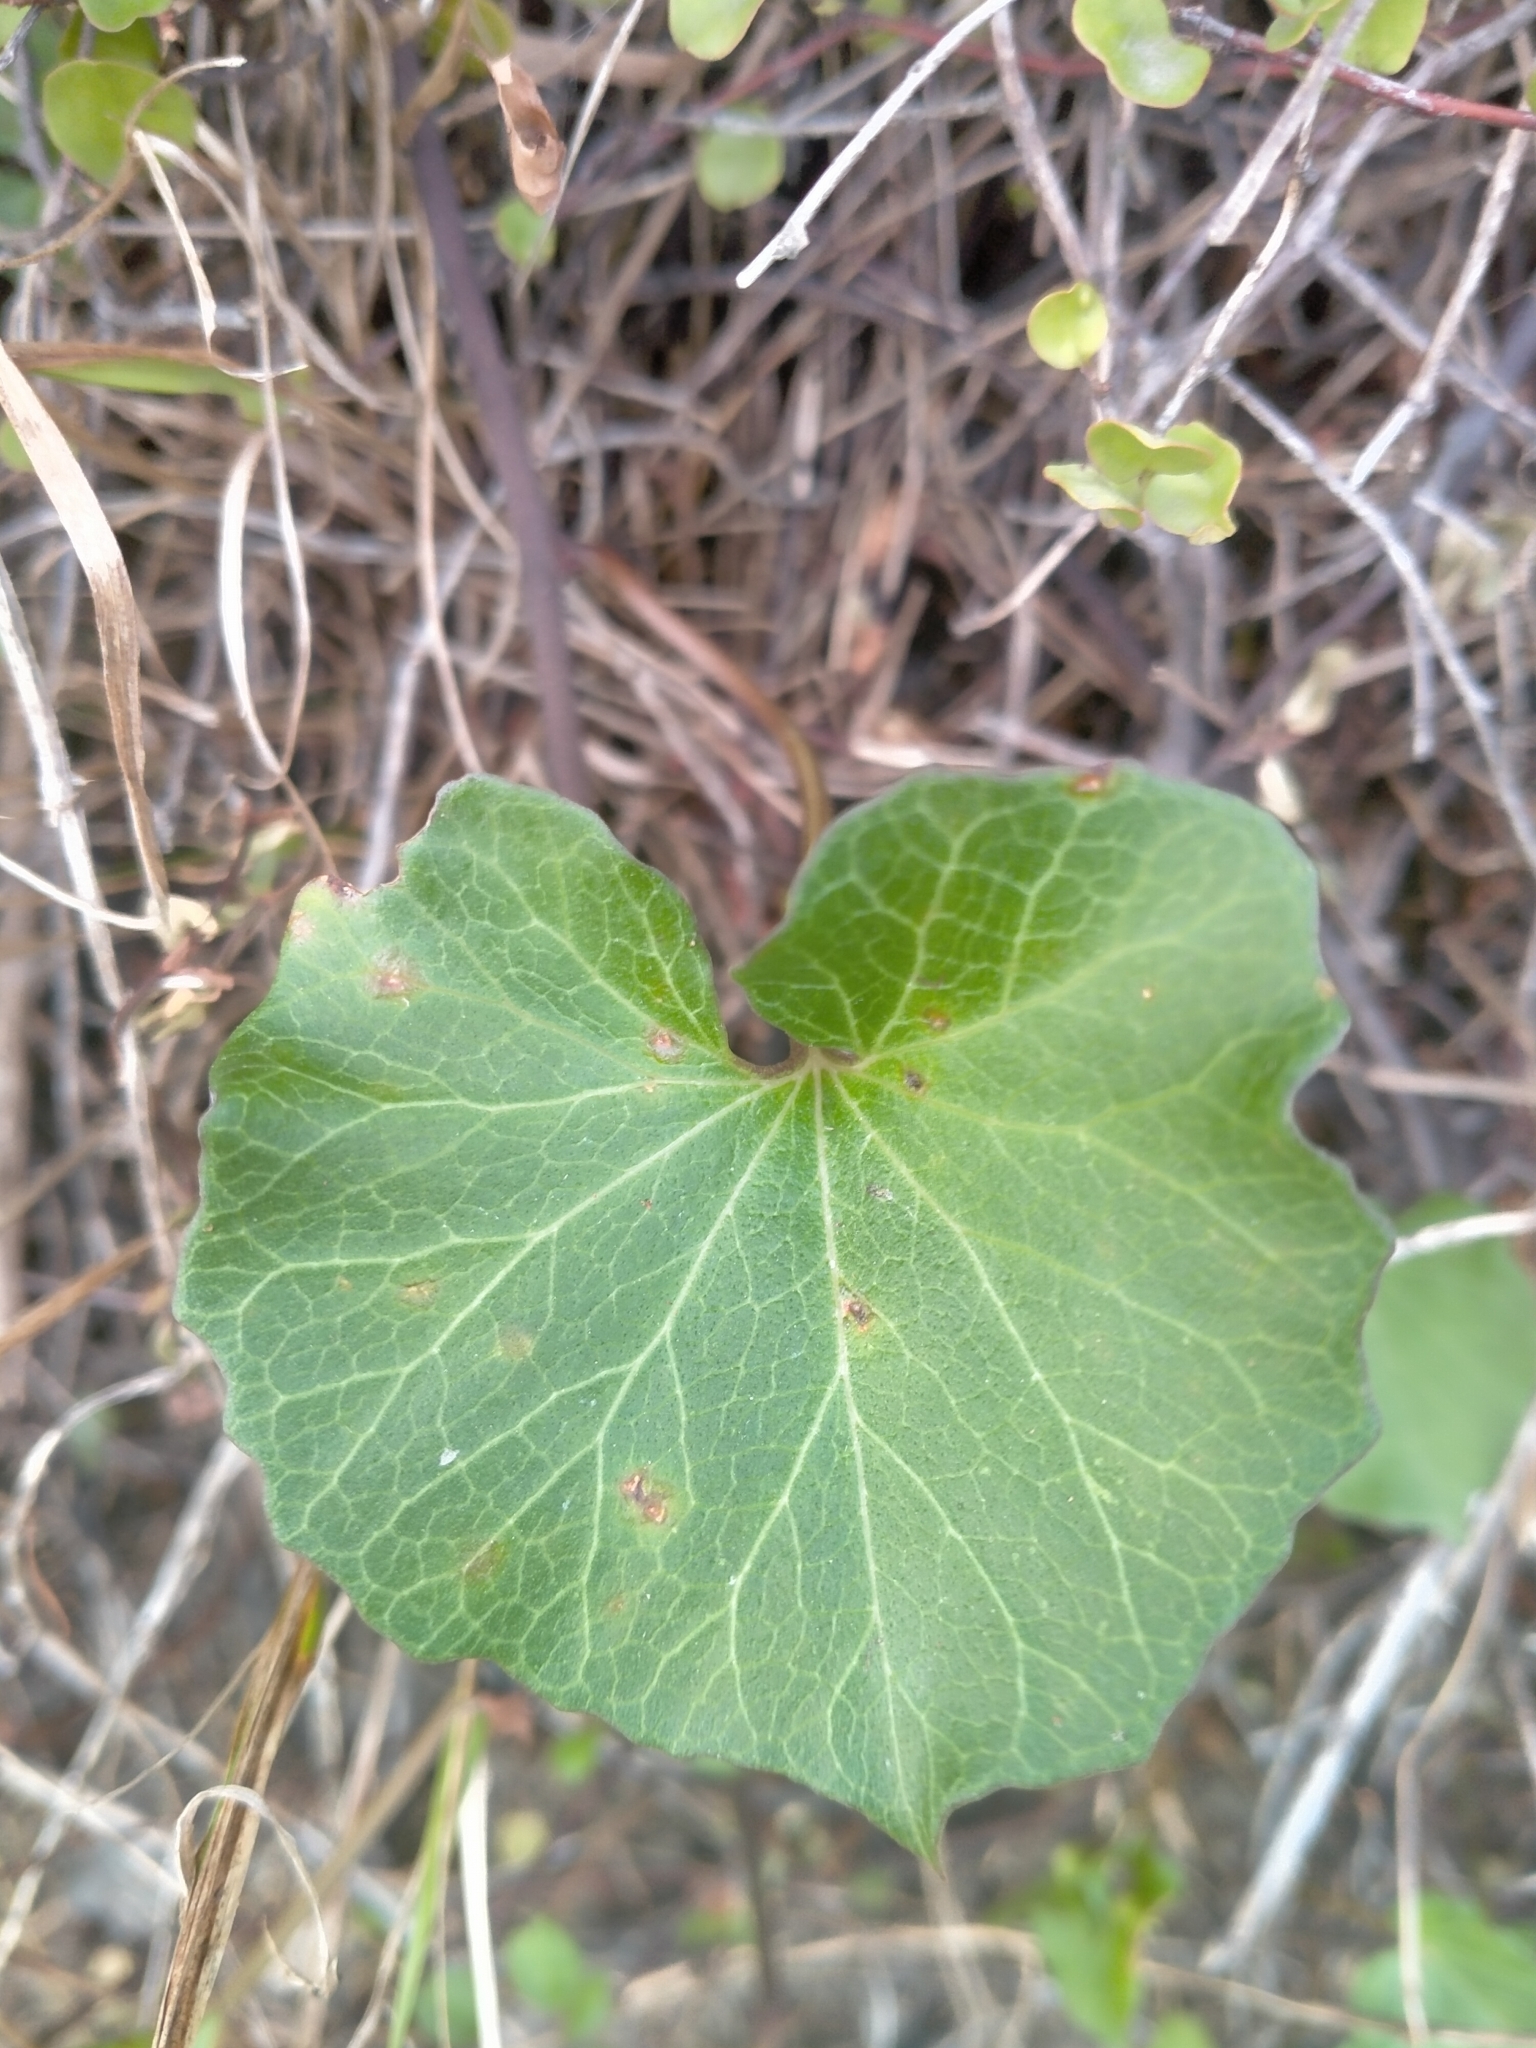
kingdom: Plantae
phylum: Tracheophyta
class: Magnoliopsida
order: Solanales
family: Convolvulaceae
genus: Calystegia
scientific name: Calystegia soldanella
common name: Sea bindweed
